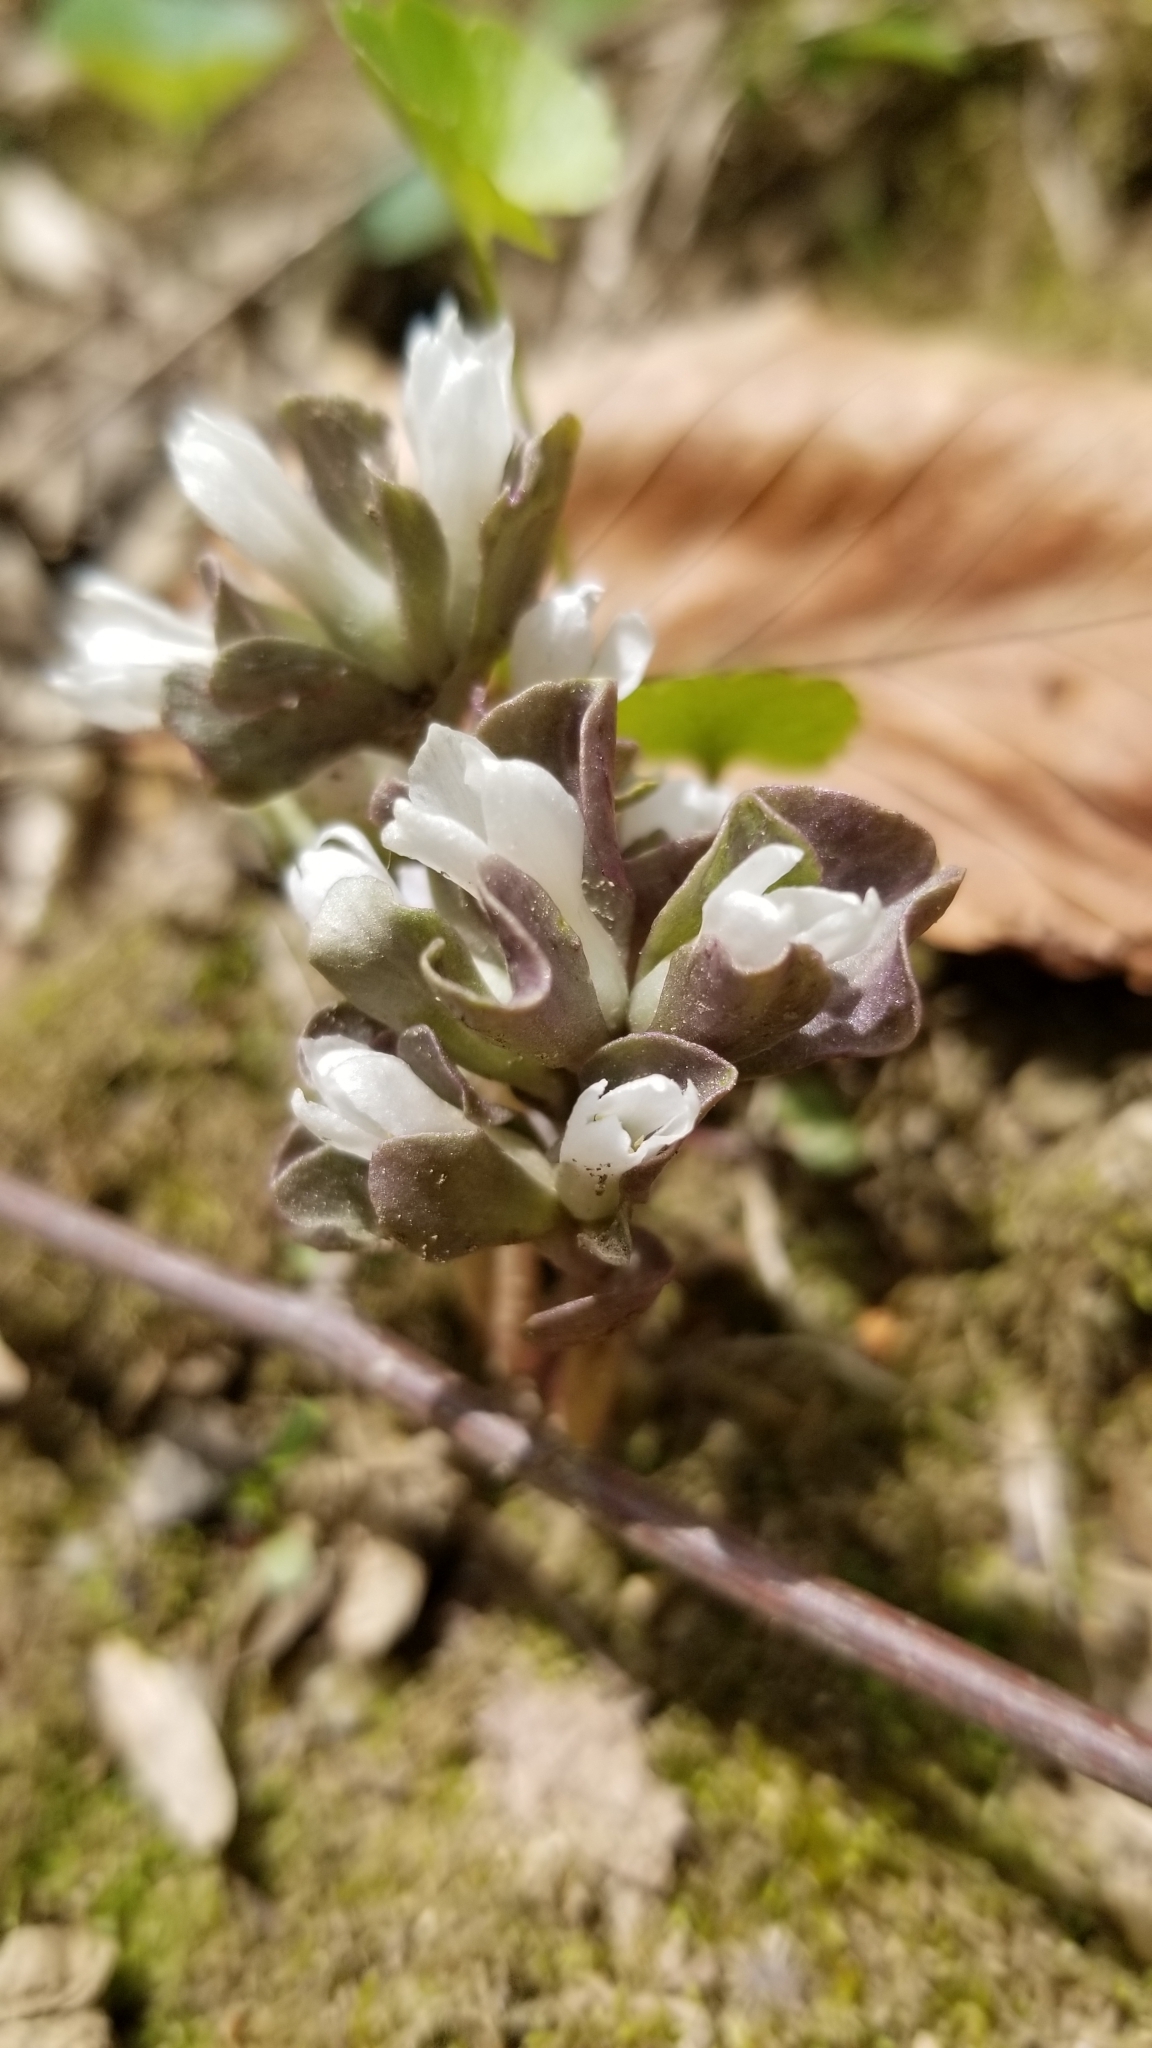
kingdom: Plantae
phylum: Tracheophyta
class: Magnoliopsida
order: Gentianales
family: Gentianaceae
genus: Obolaria
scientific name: Obolaria virginica
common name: Pennywort
